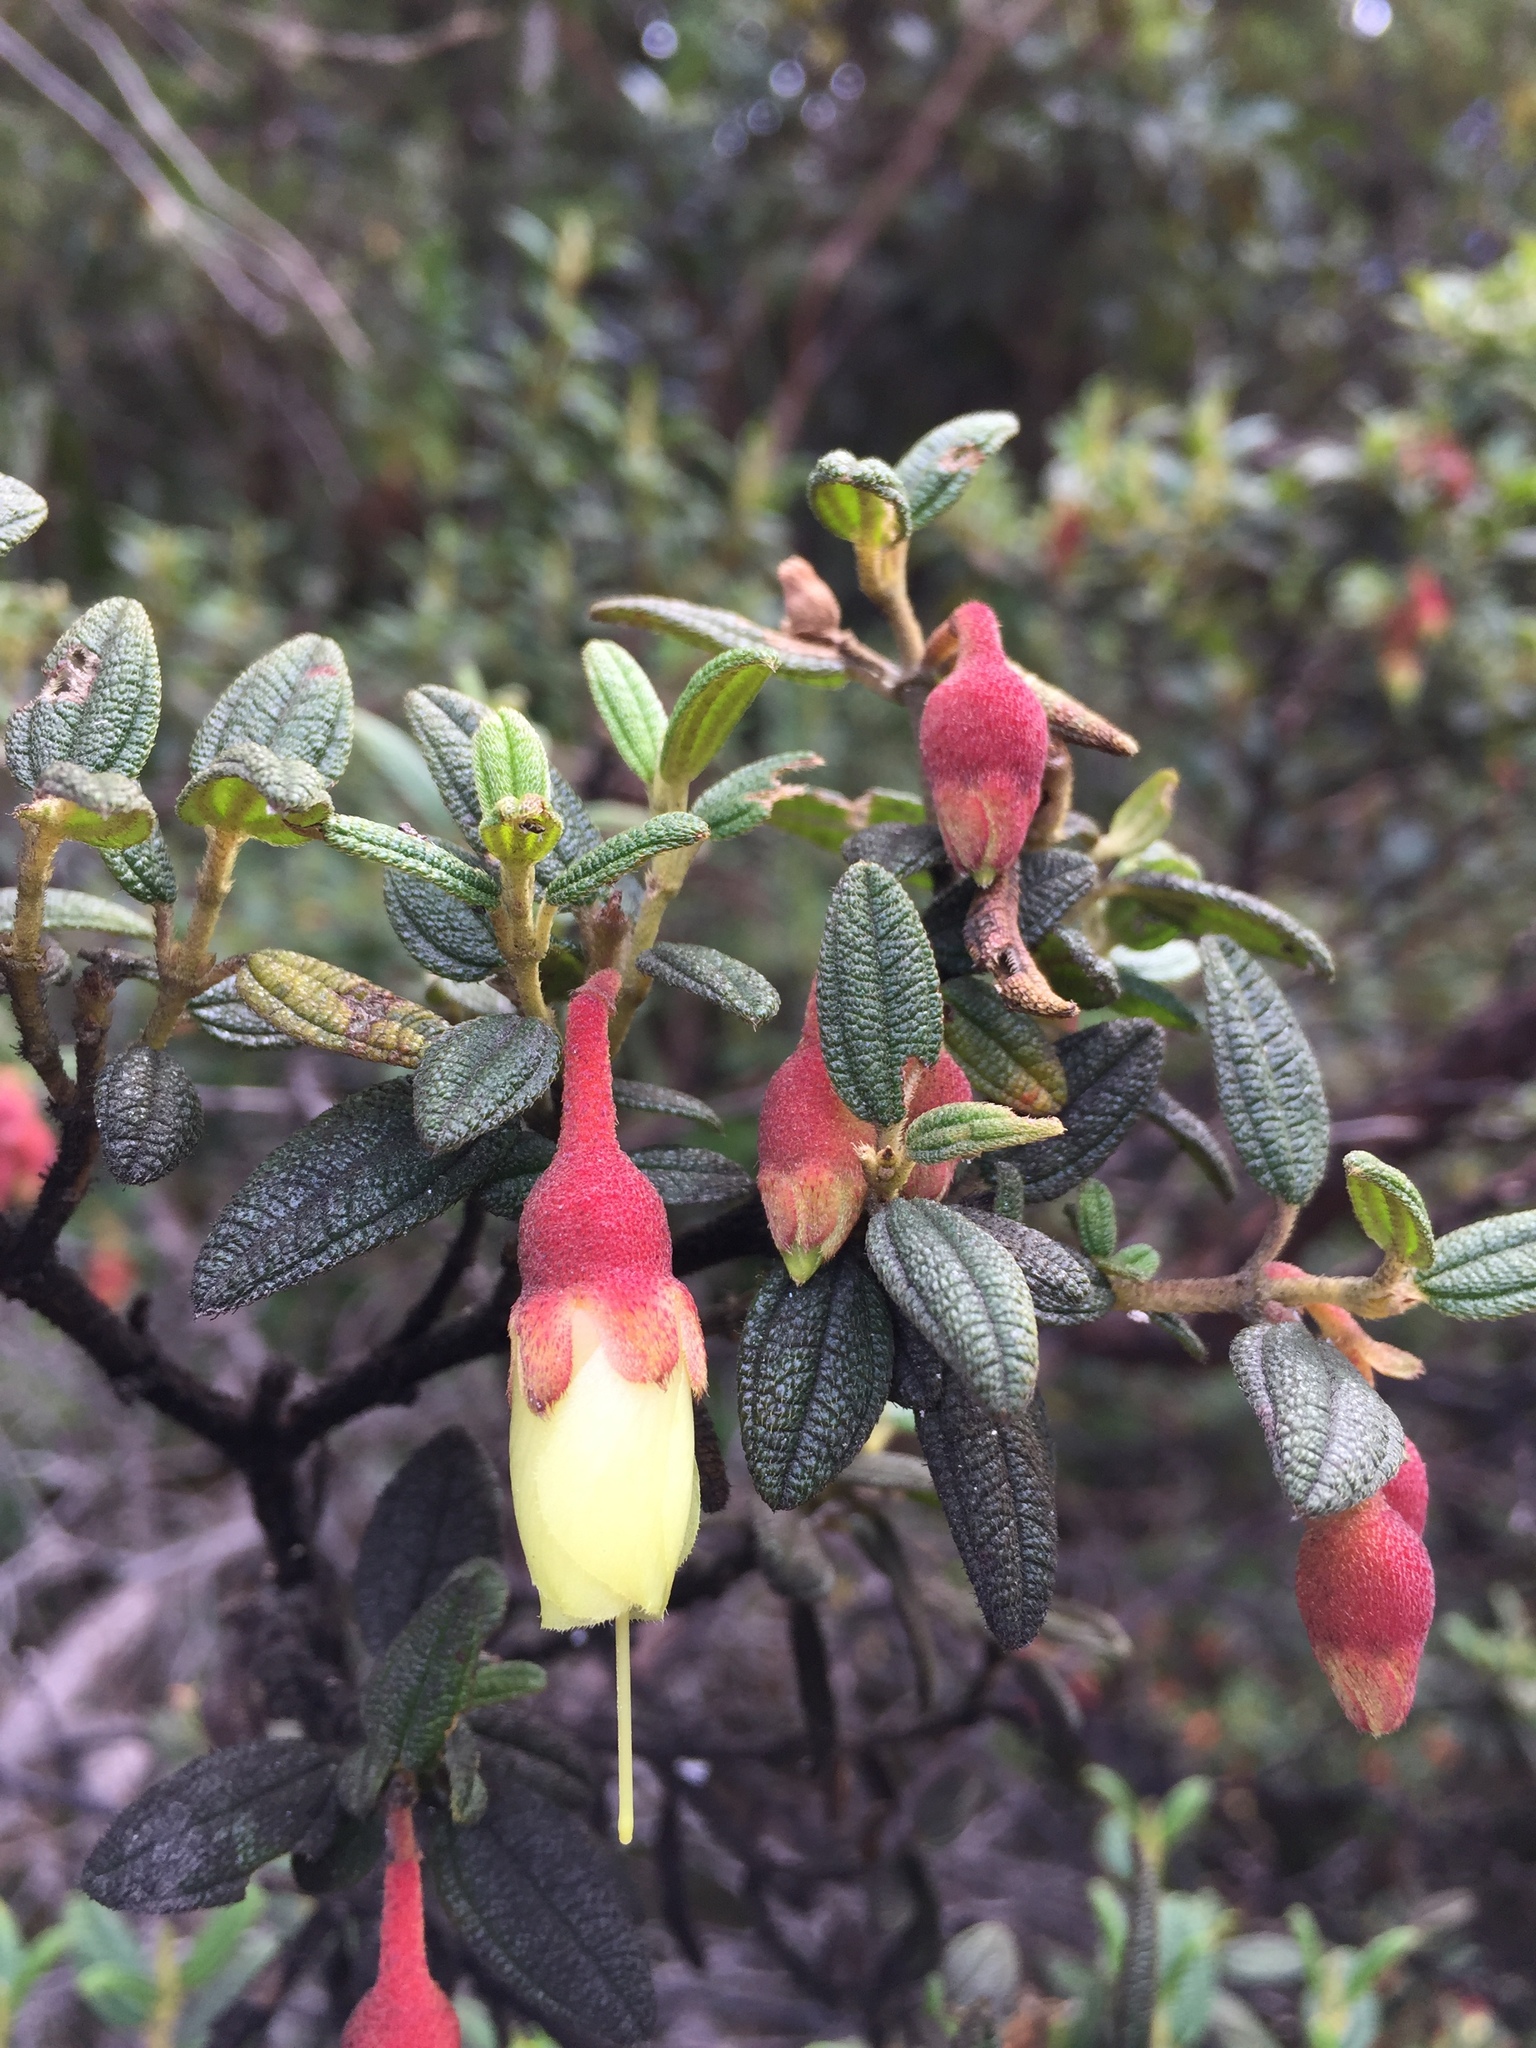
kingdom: Plantae
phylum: Tracheophyta
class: Magnoliopsida
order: Myrtales
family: Melastomataceae
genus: Brachyotum
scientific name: Brachyotum ledifolium
